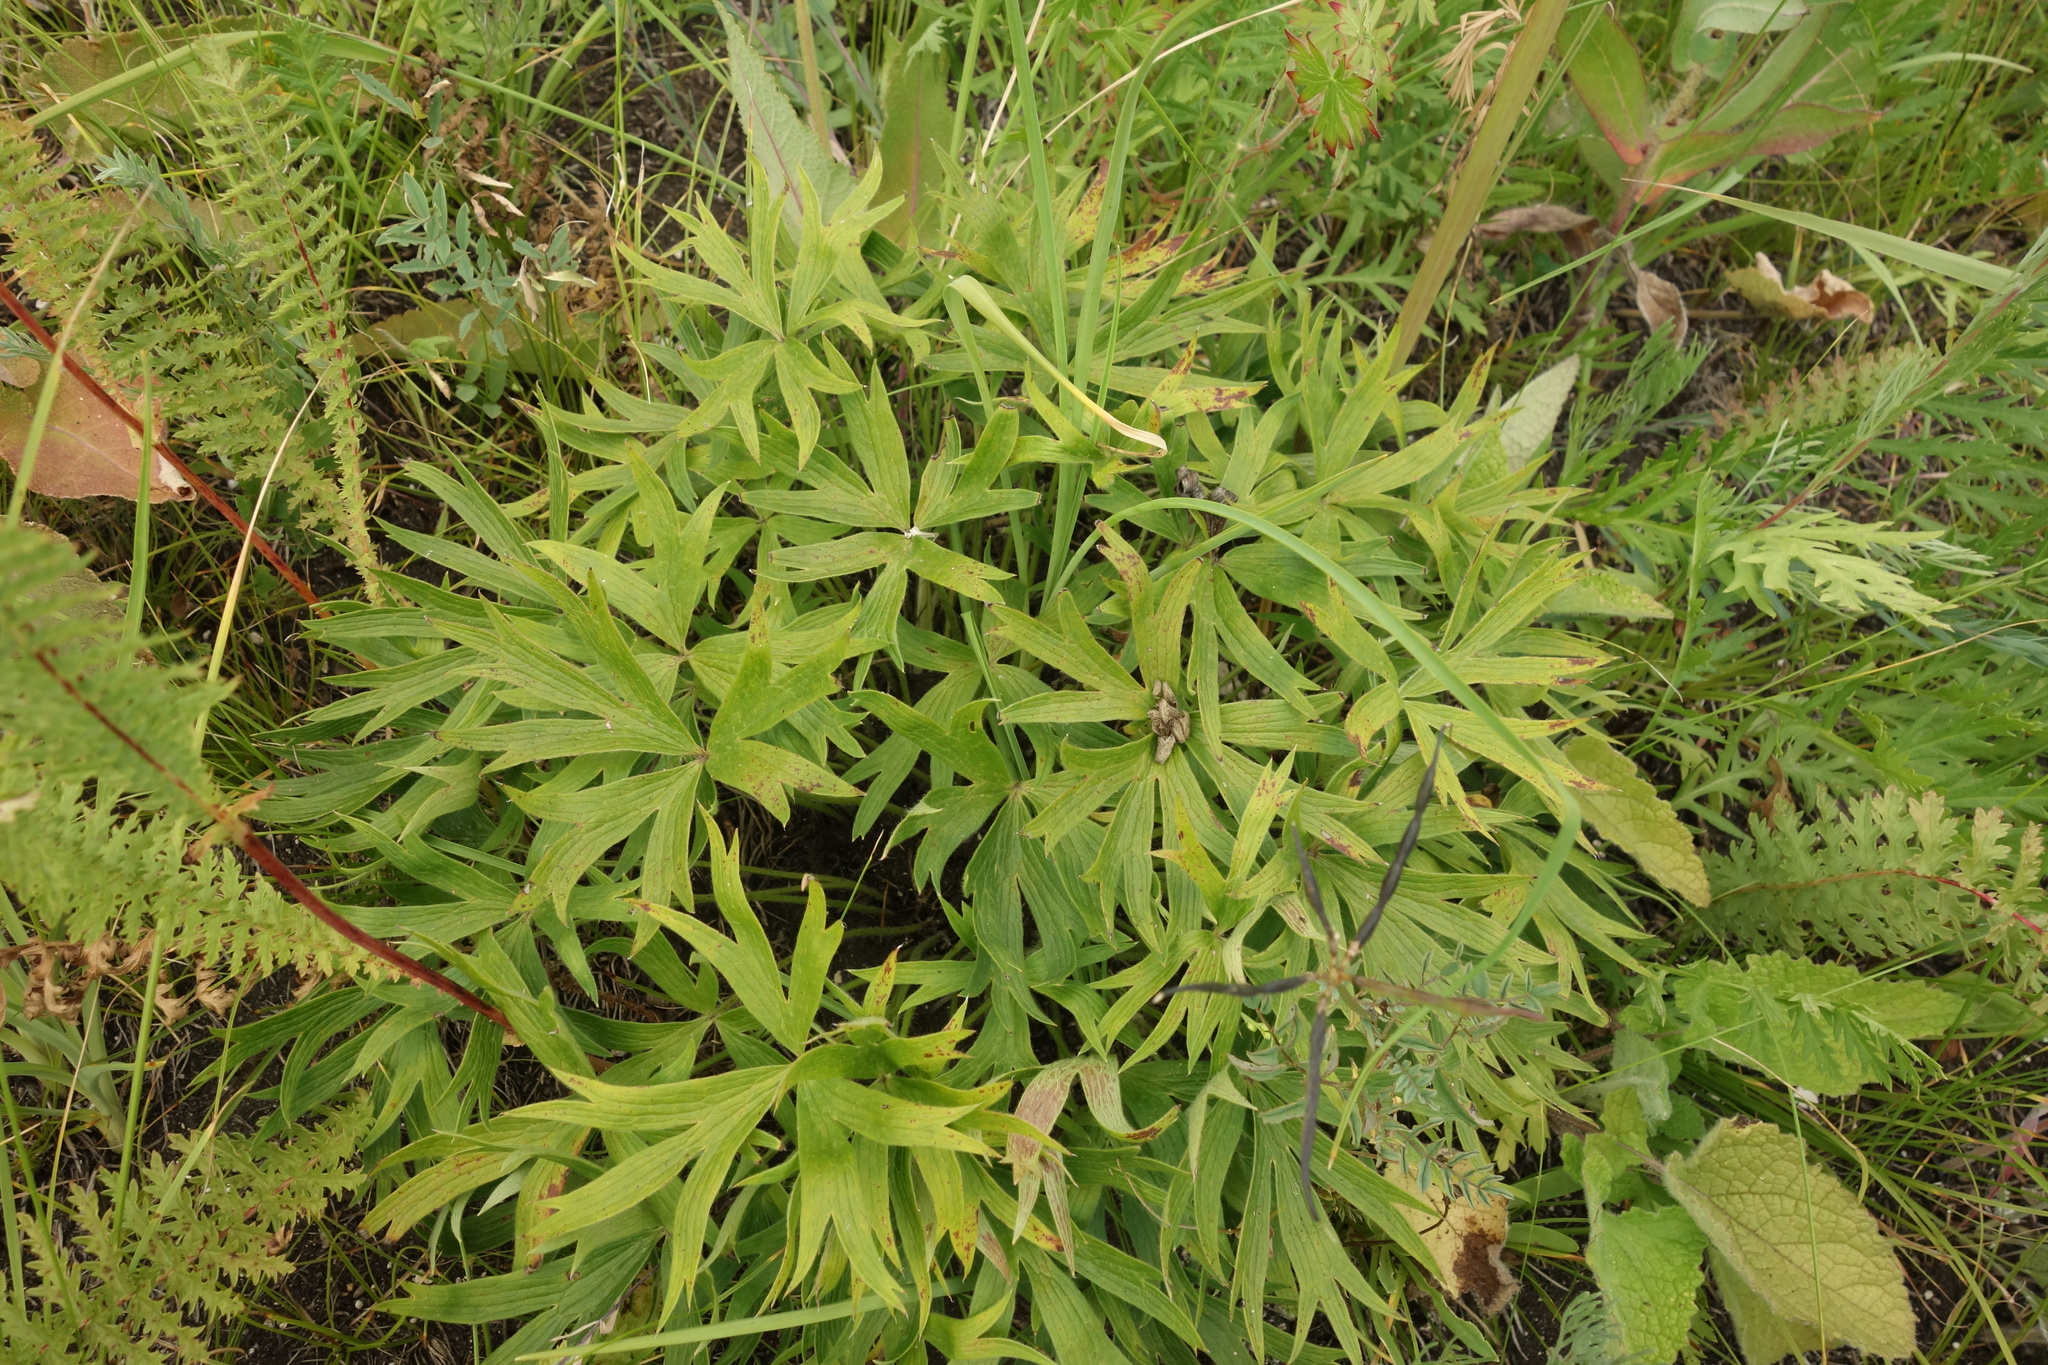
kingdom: Plantae
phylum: Tracheophyta
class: Magnoliopsida
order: Ranunculales
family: Ranunculaceae
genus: Pulsatilla
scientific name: Pulsatilla patens
